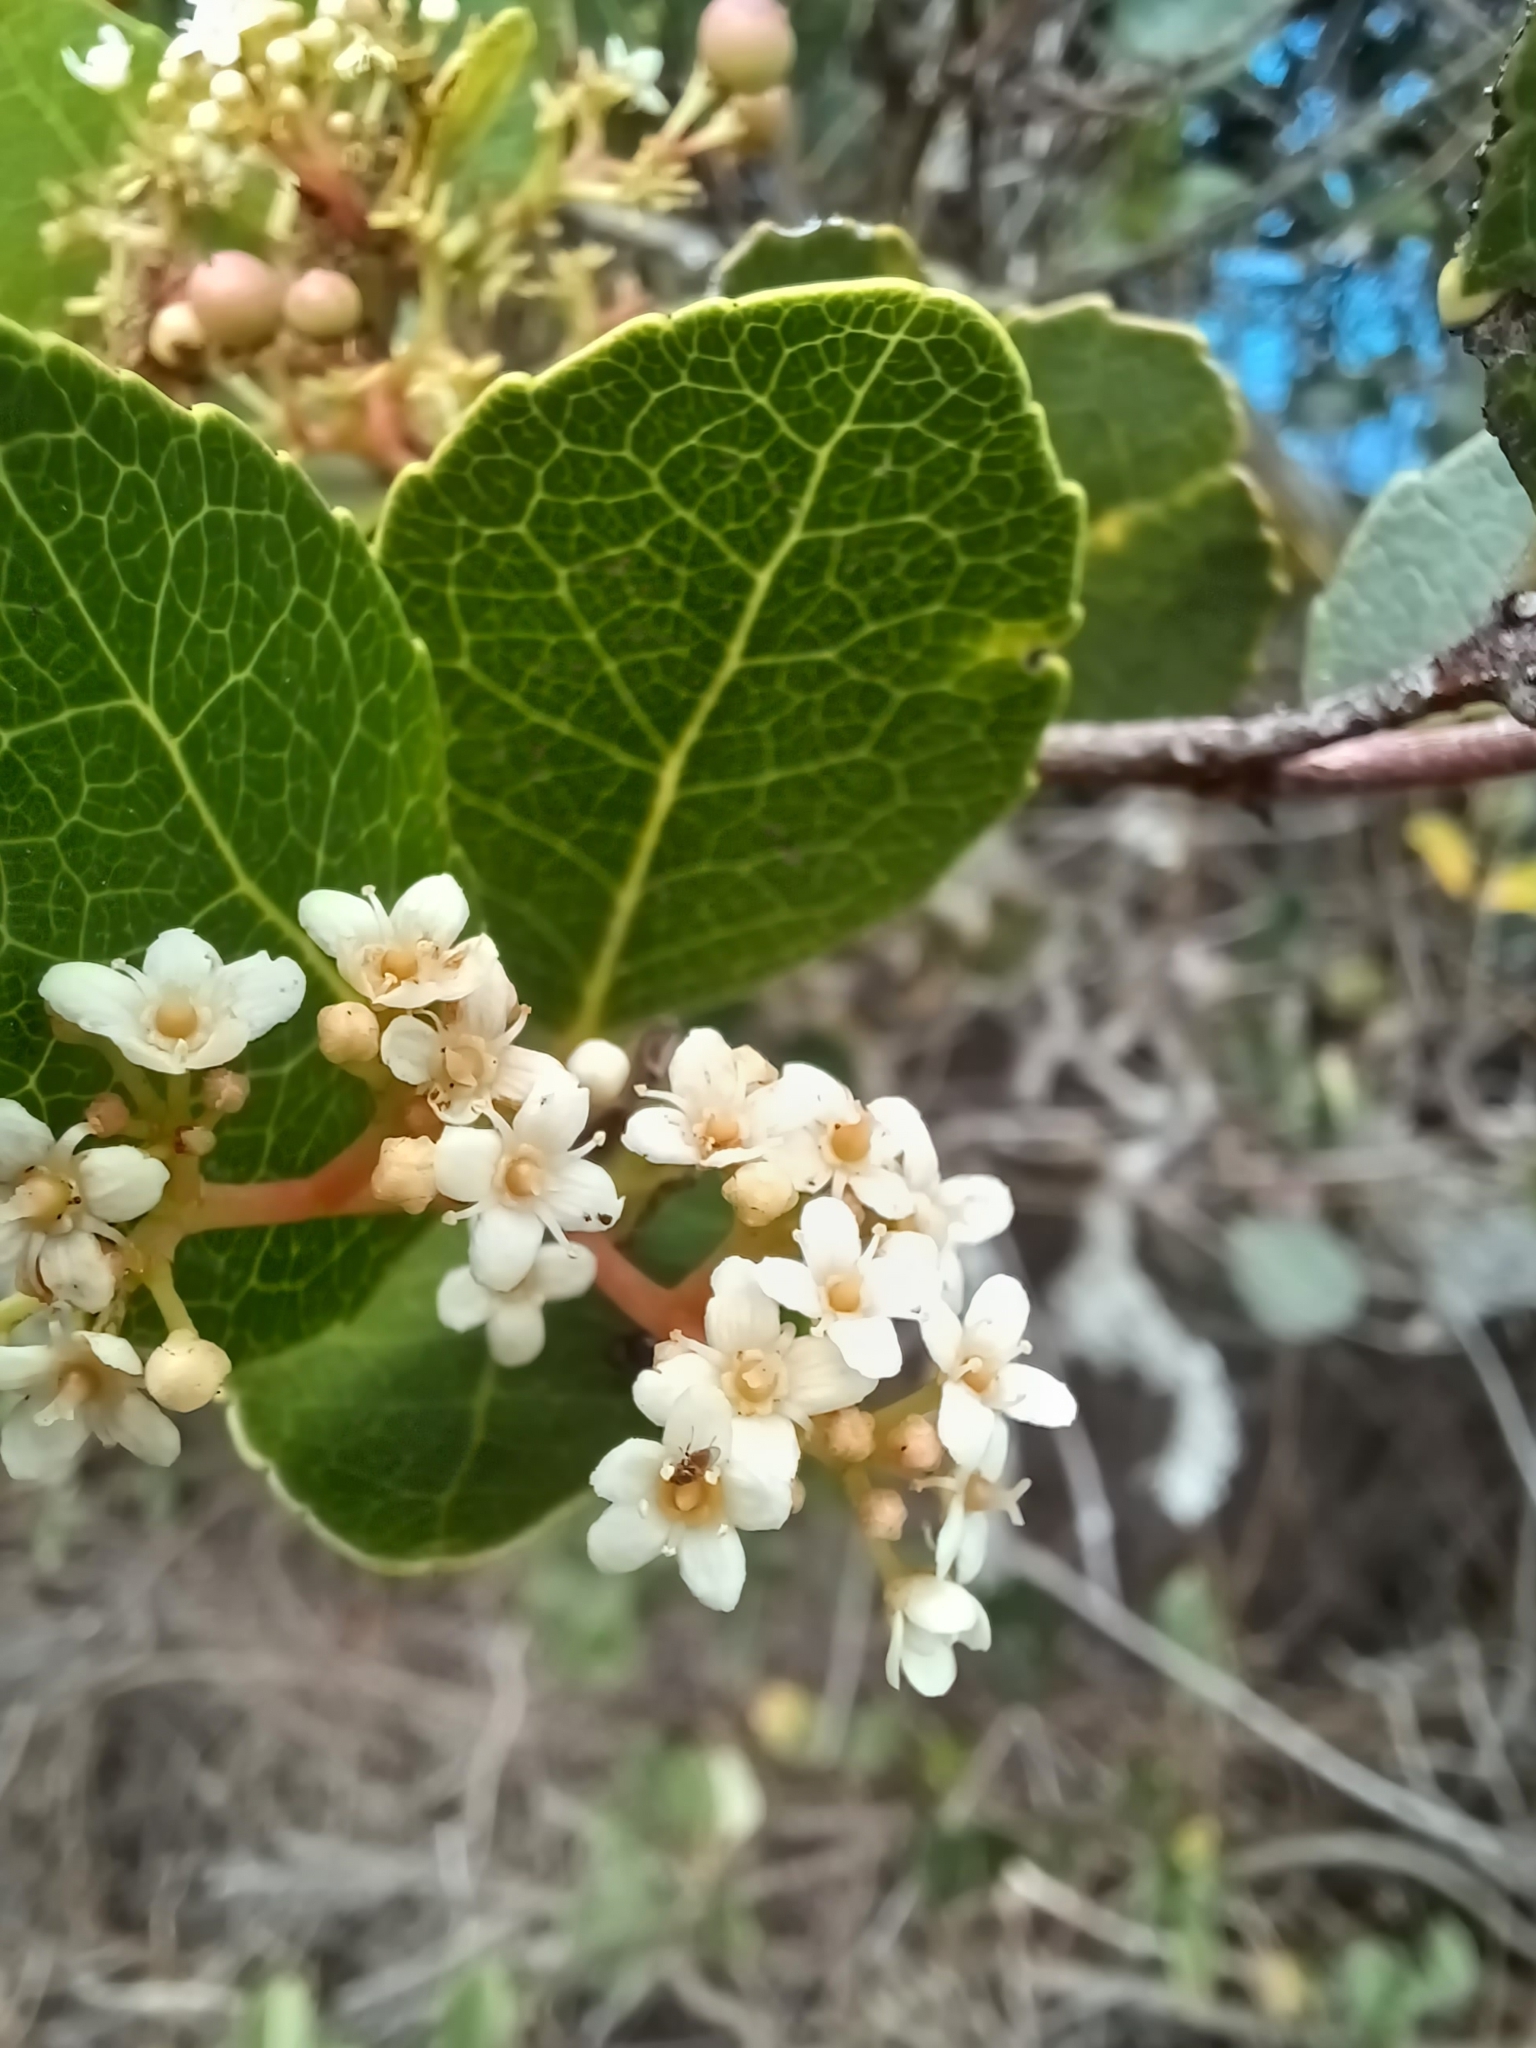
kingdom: Plantae
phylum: Tracheophyta
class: Magnoliopsida
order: Celastrales
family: Celastraceae
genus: Cassine
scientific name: Cassine peragua
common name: Cape saffron
